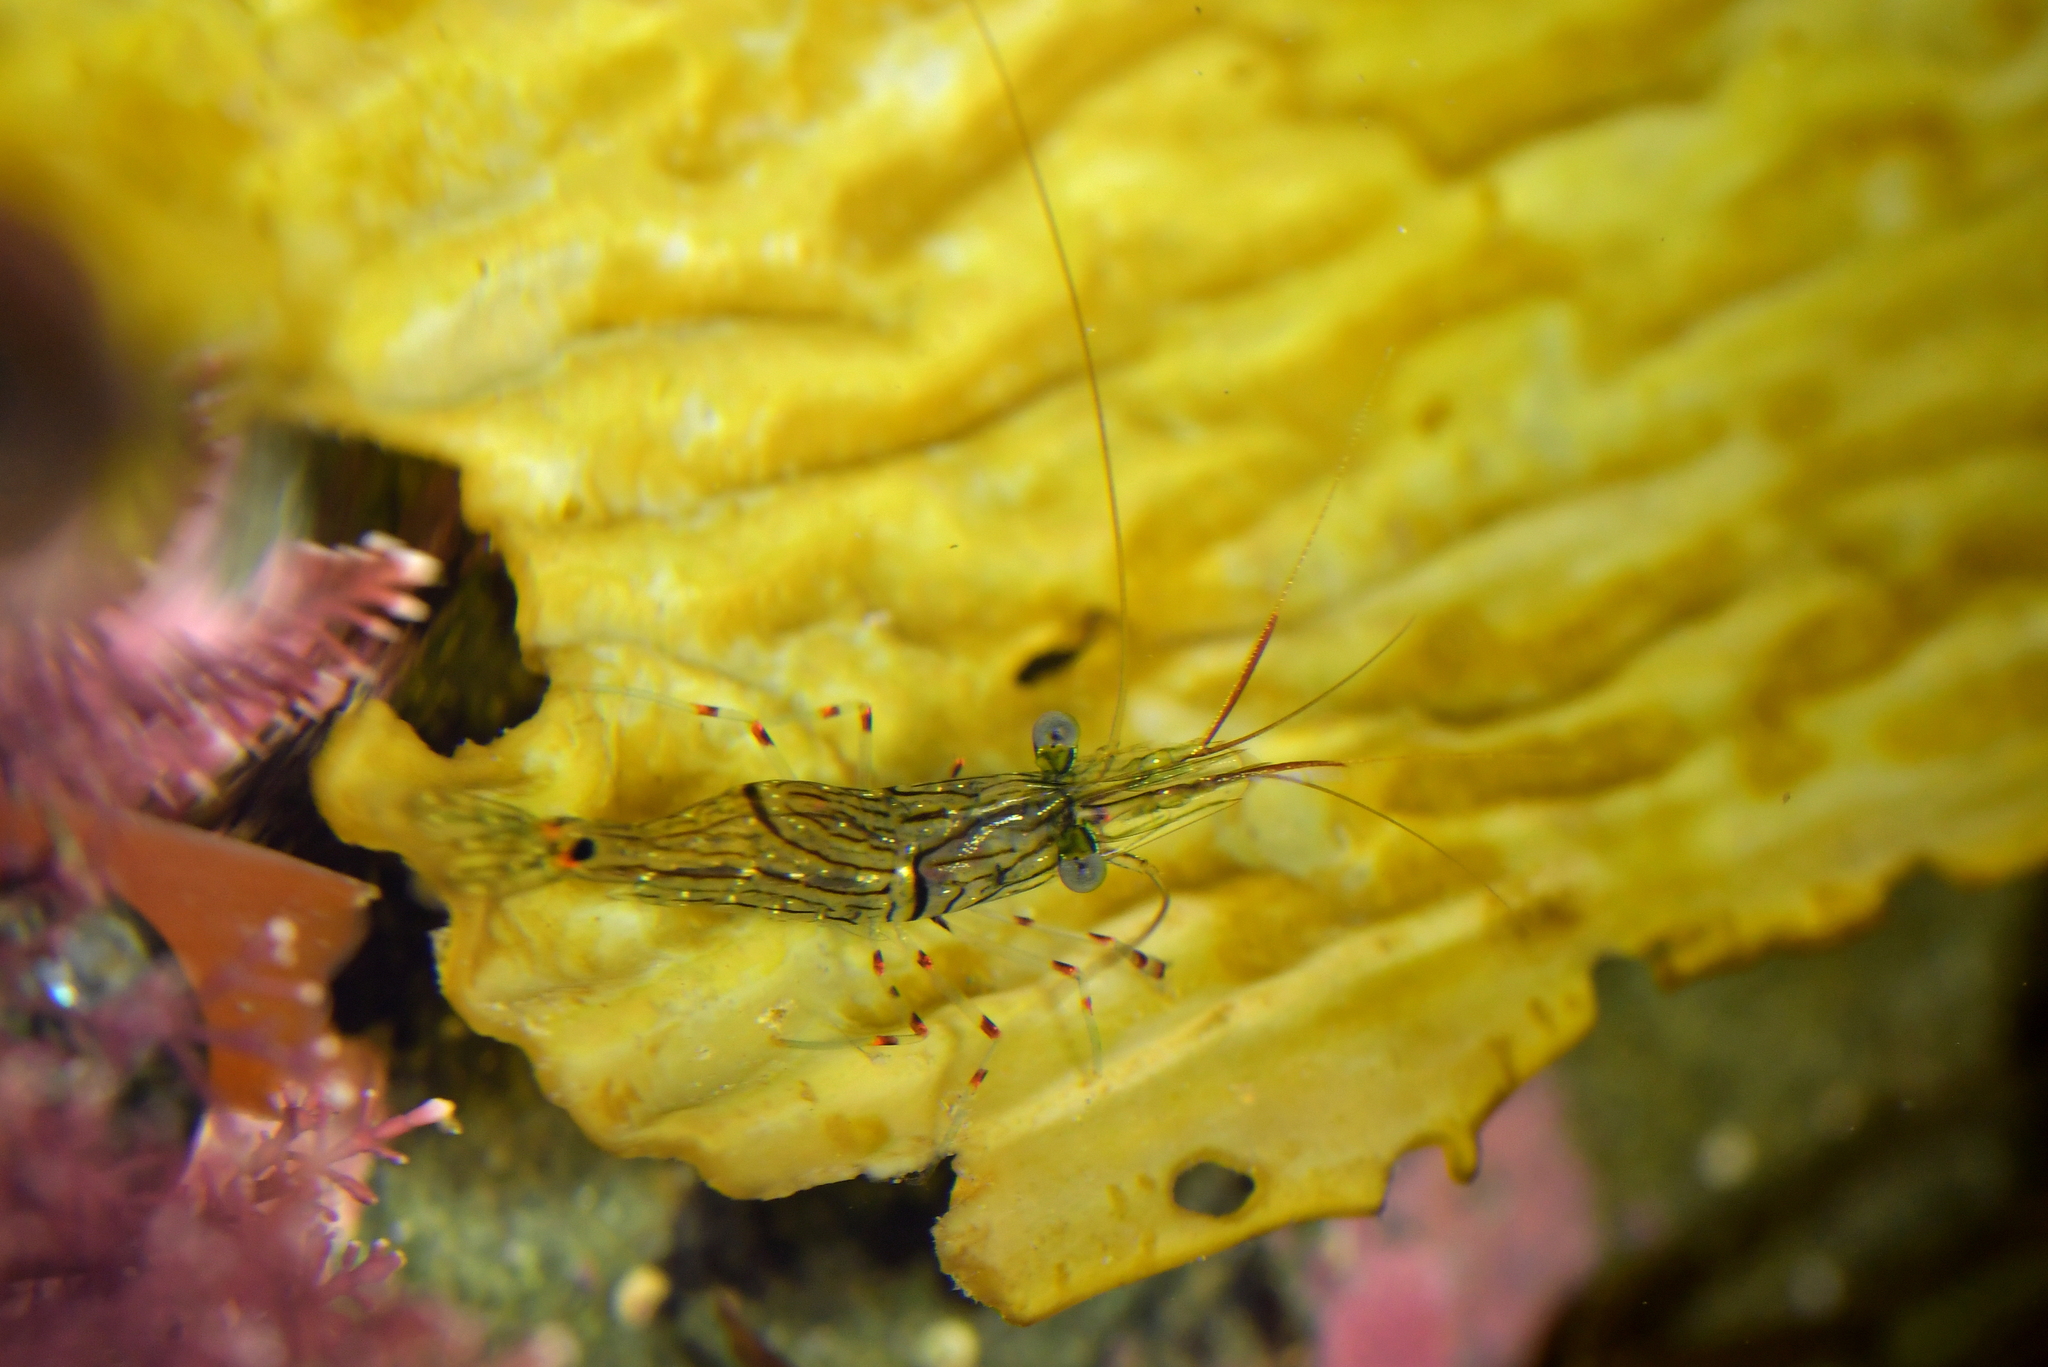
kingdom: Animalia
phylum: Arthropoda
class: Malacostraca
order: Decapoda
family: Palaemonidae
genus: Palaemon
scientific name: Palaemon affinis
